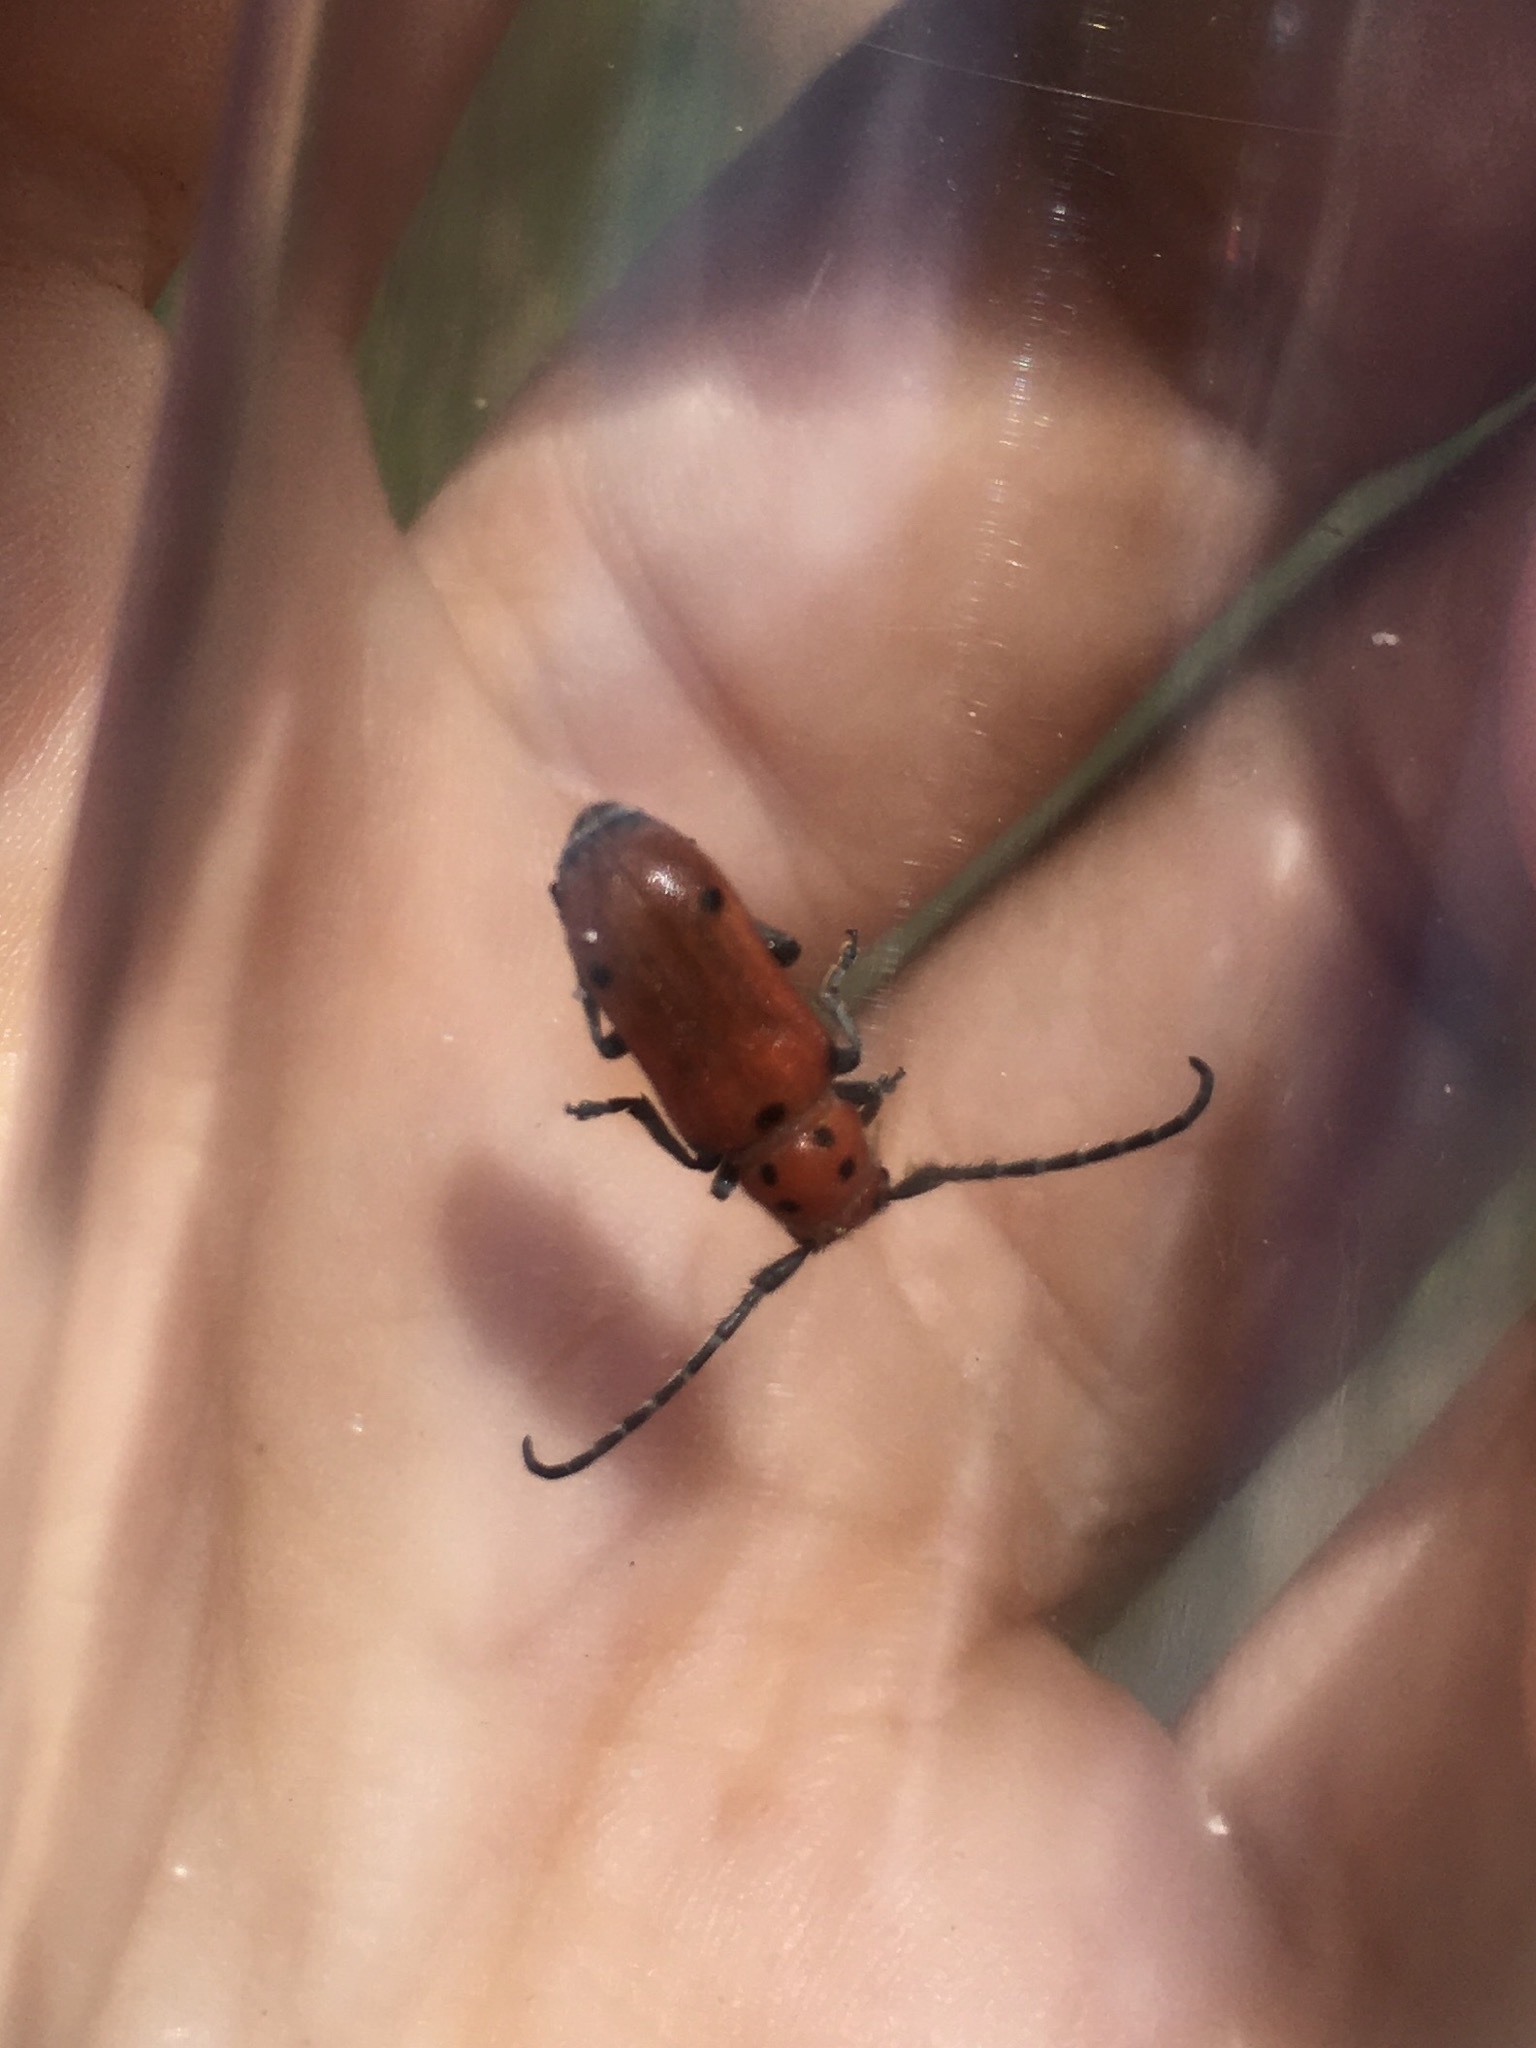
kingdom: Animalia
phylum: Arthropoda
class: Insecta
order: Coleoptera
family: Cerambycidae
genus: Tetraopes
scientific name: Tetraopes quinquemaculatus
